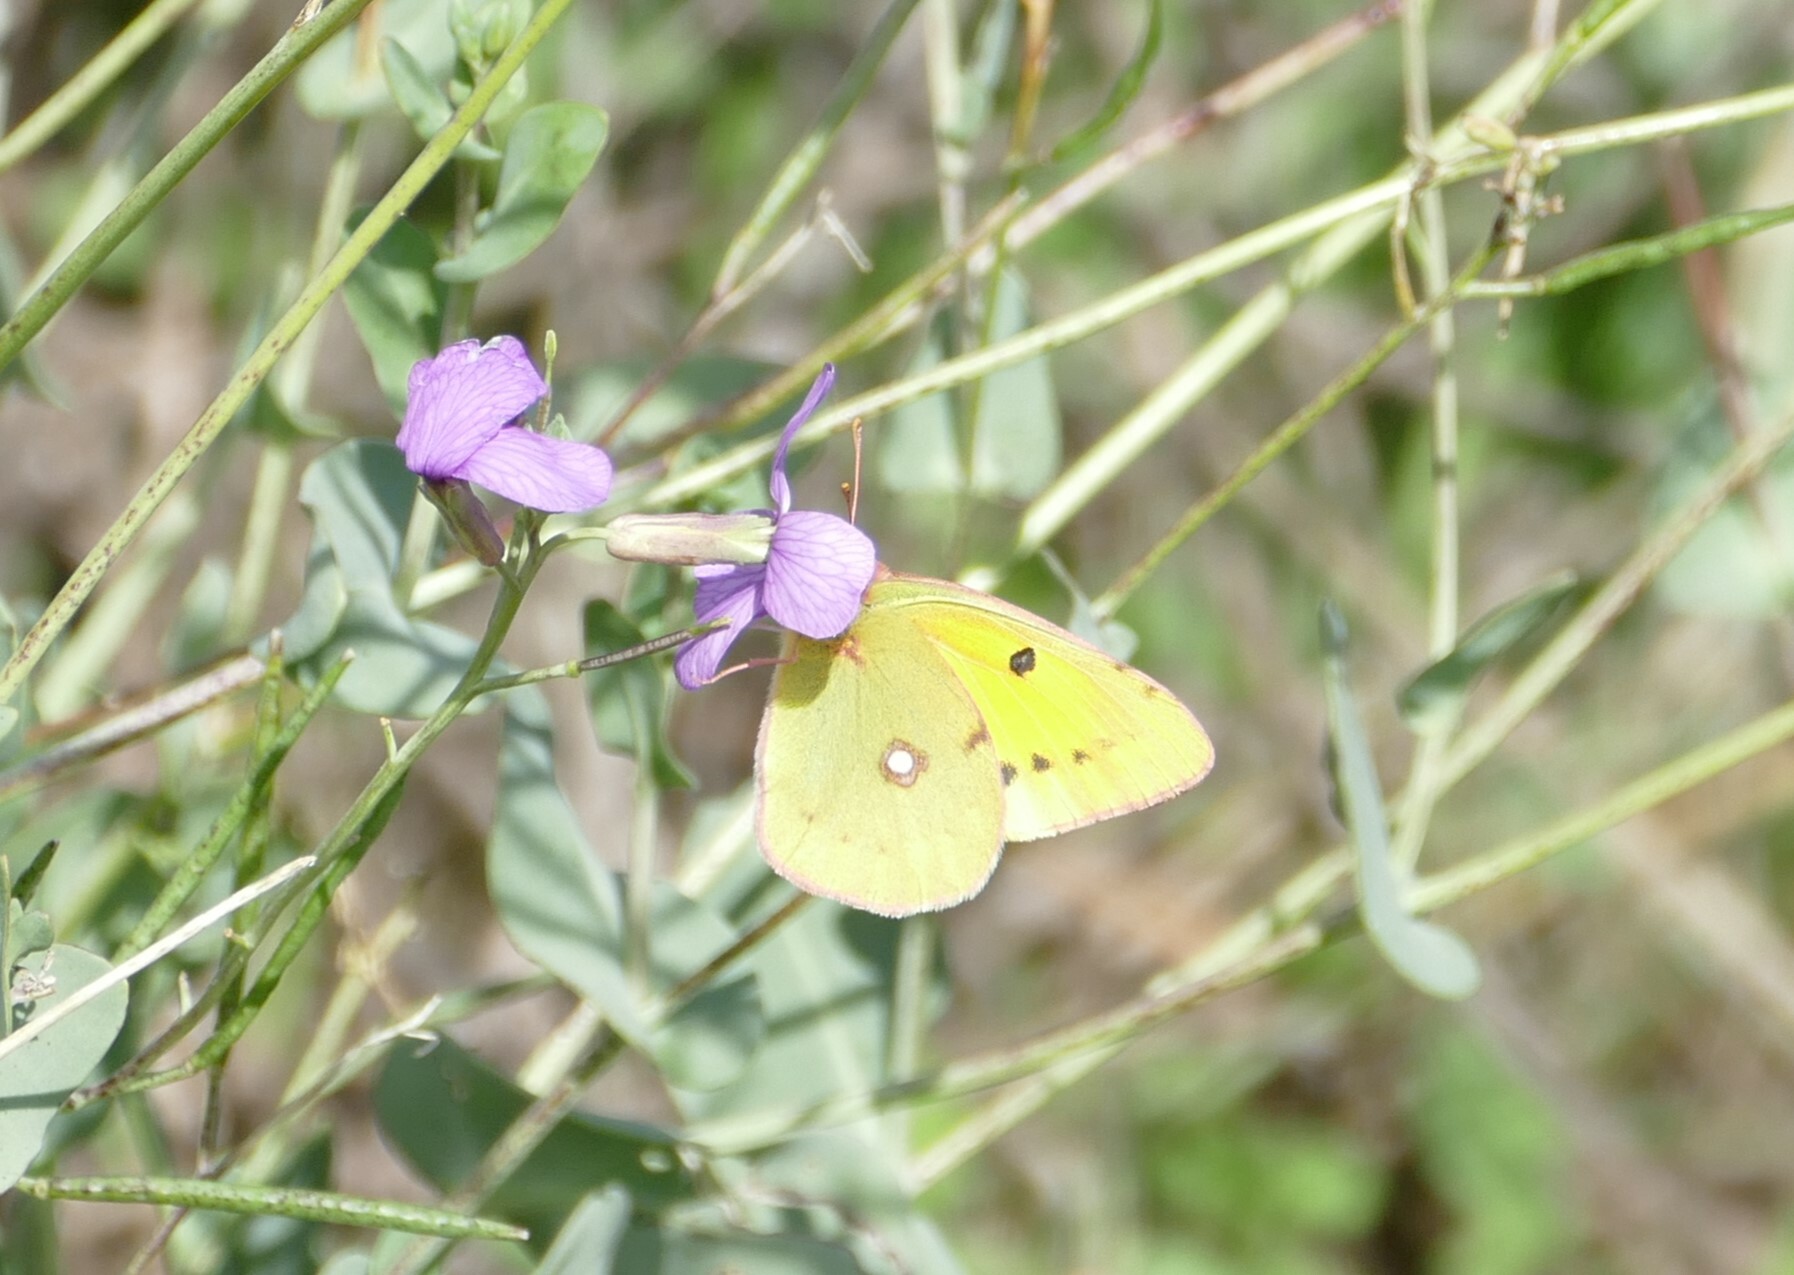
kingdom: Animalia
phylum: Arthropoda
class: Insecta
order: Lepidoptera
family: Pieridae
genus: Colias
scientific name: Colias croceus
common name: Clouded yellow
